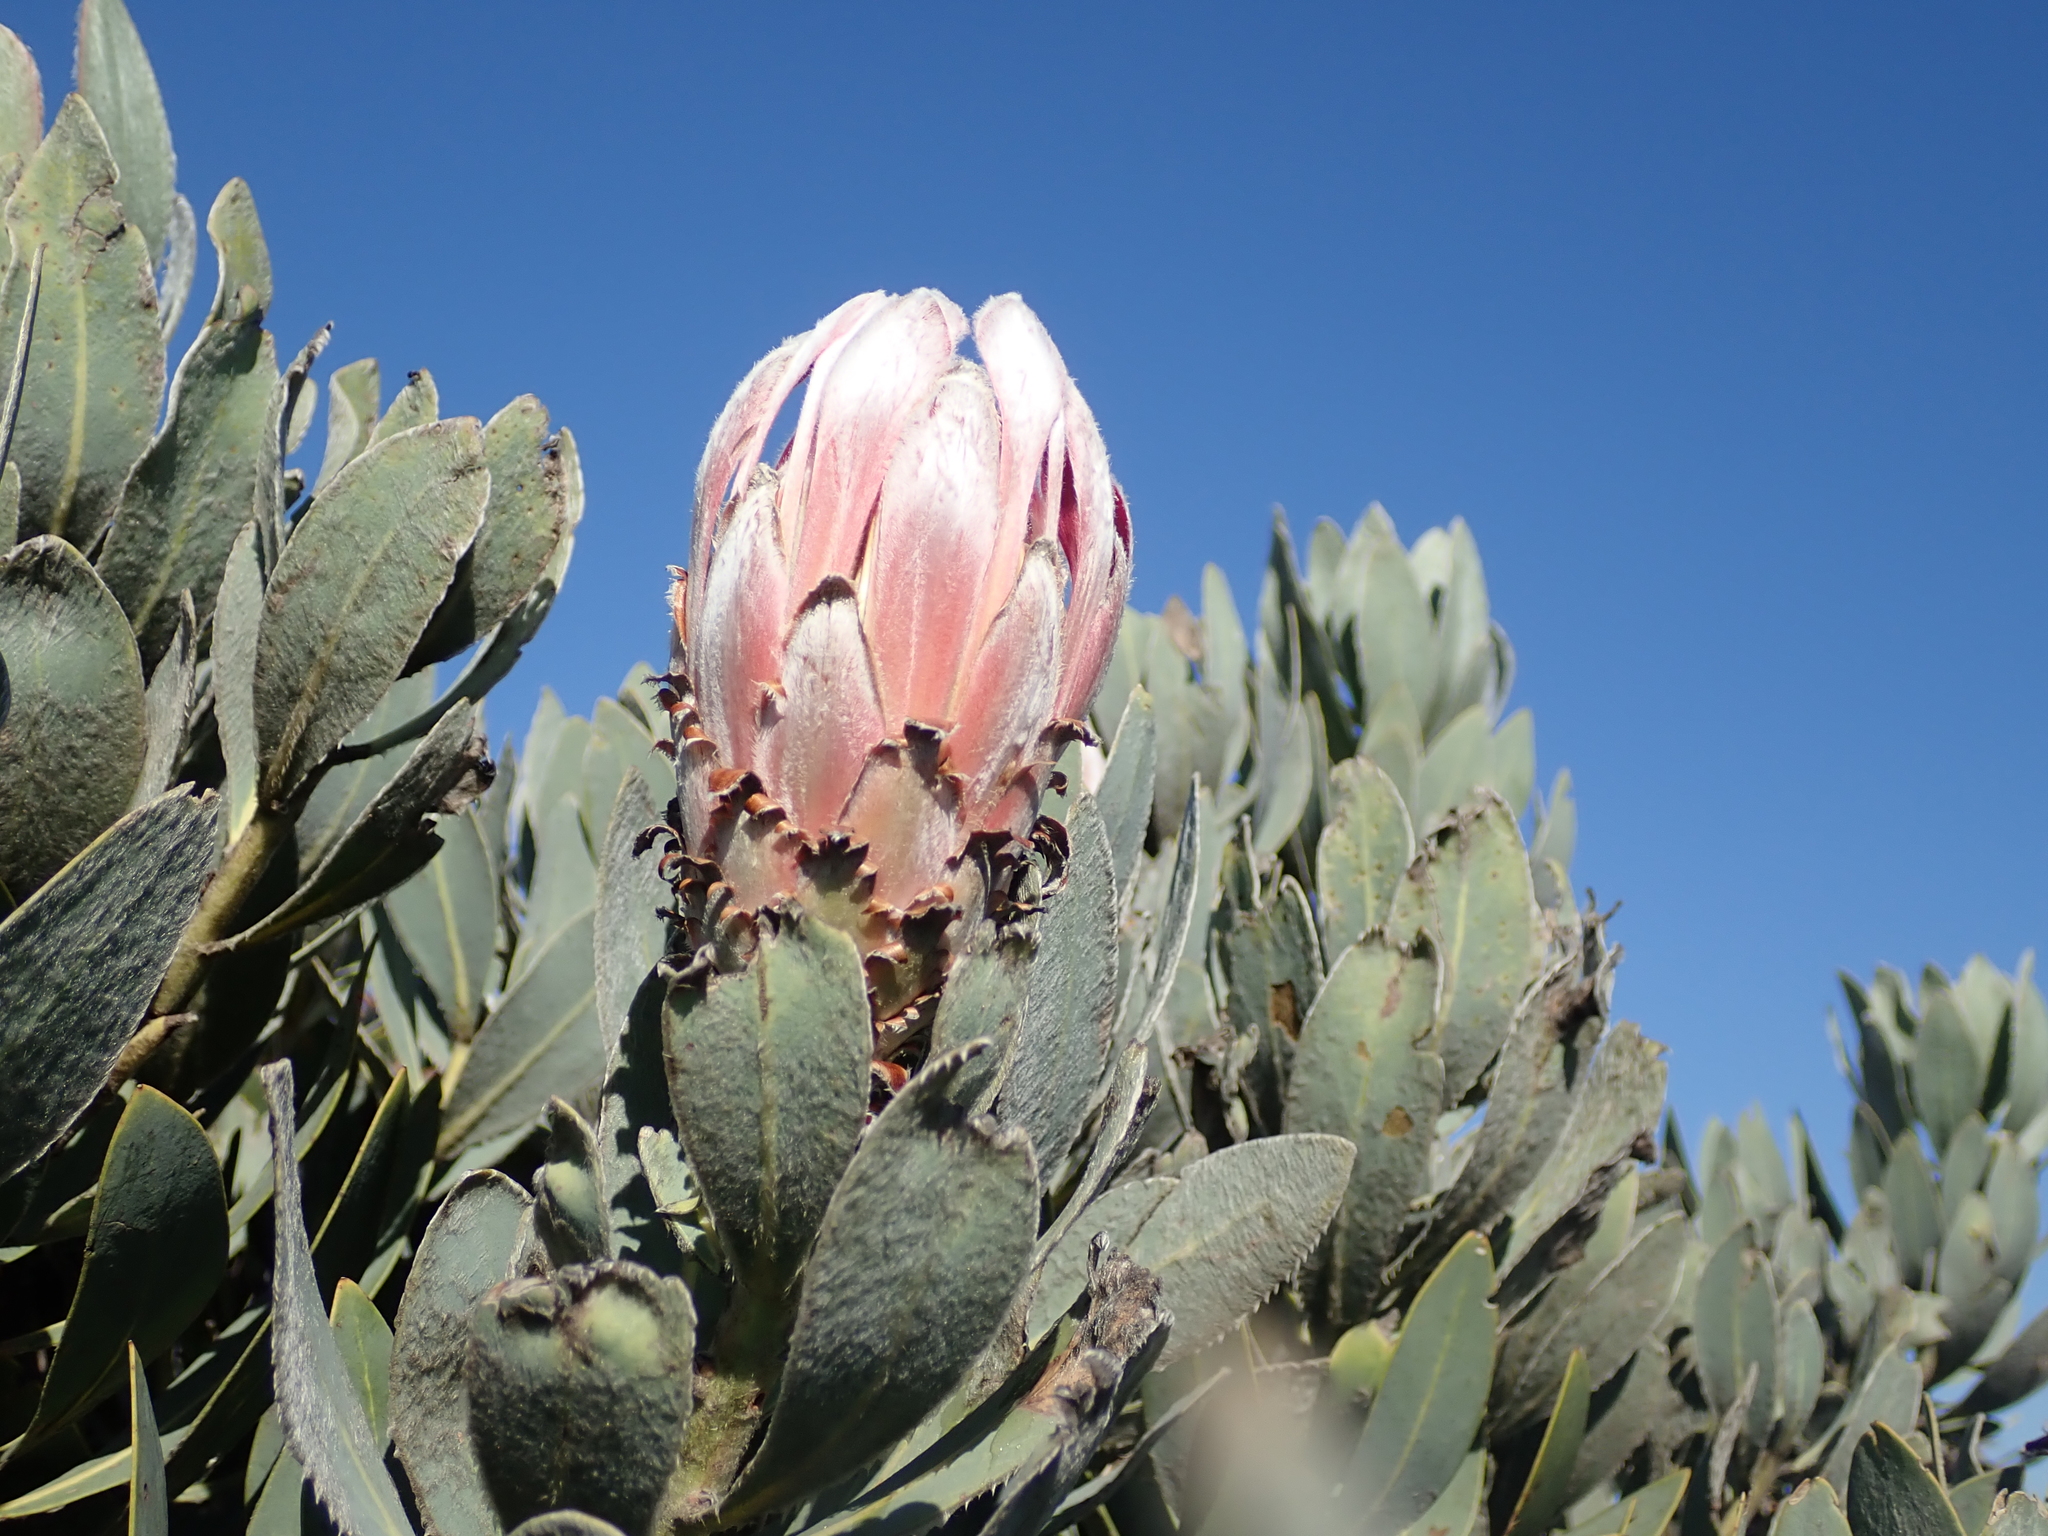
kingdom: Plantae
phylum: Tracheophyta
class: Magnoliopsida
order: Proteales
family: Proteaceae
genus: Protea
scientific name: Protea roupelliae
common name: Silver sugarbush
